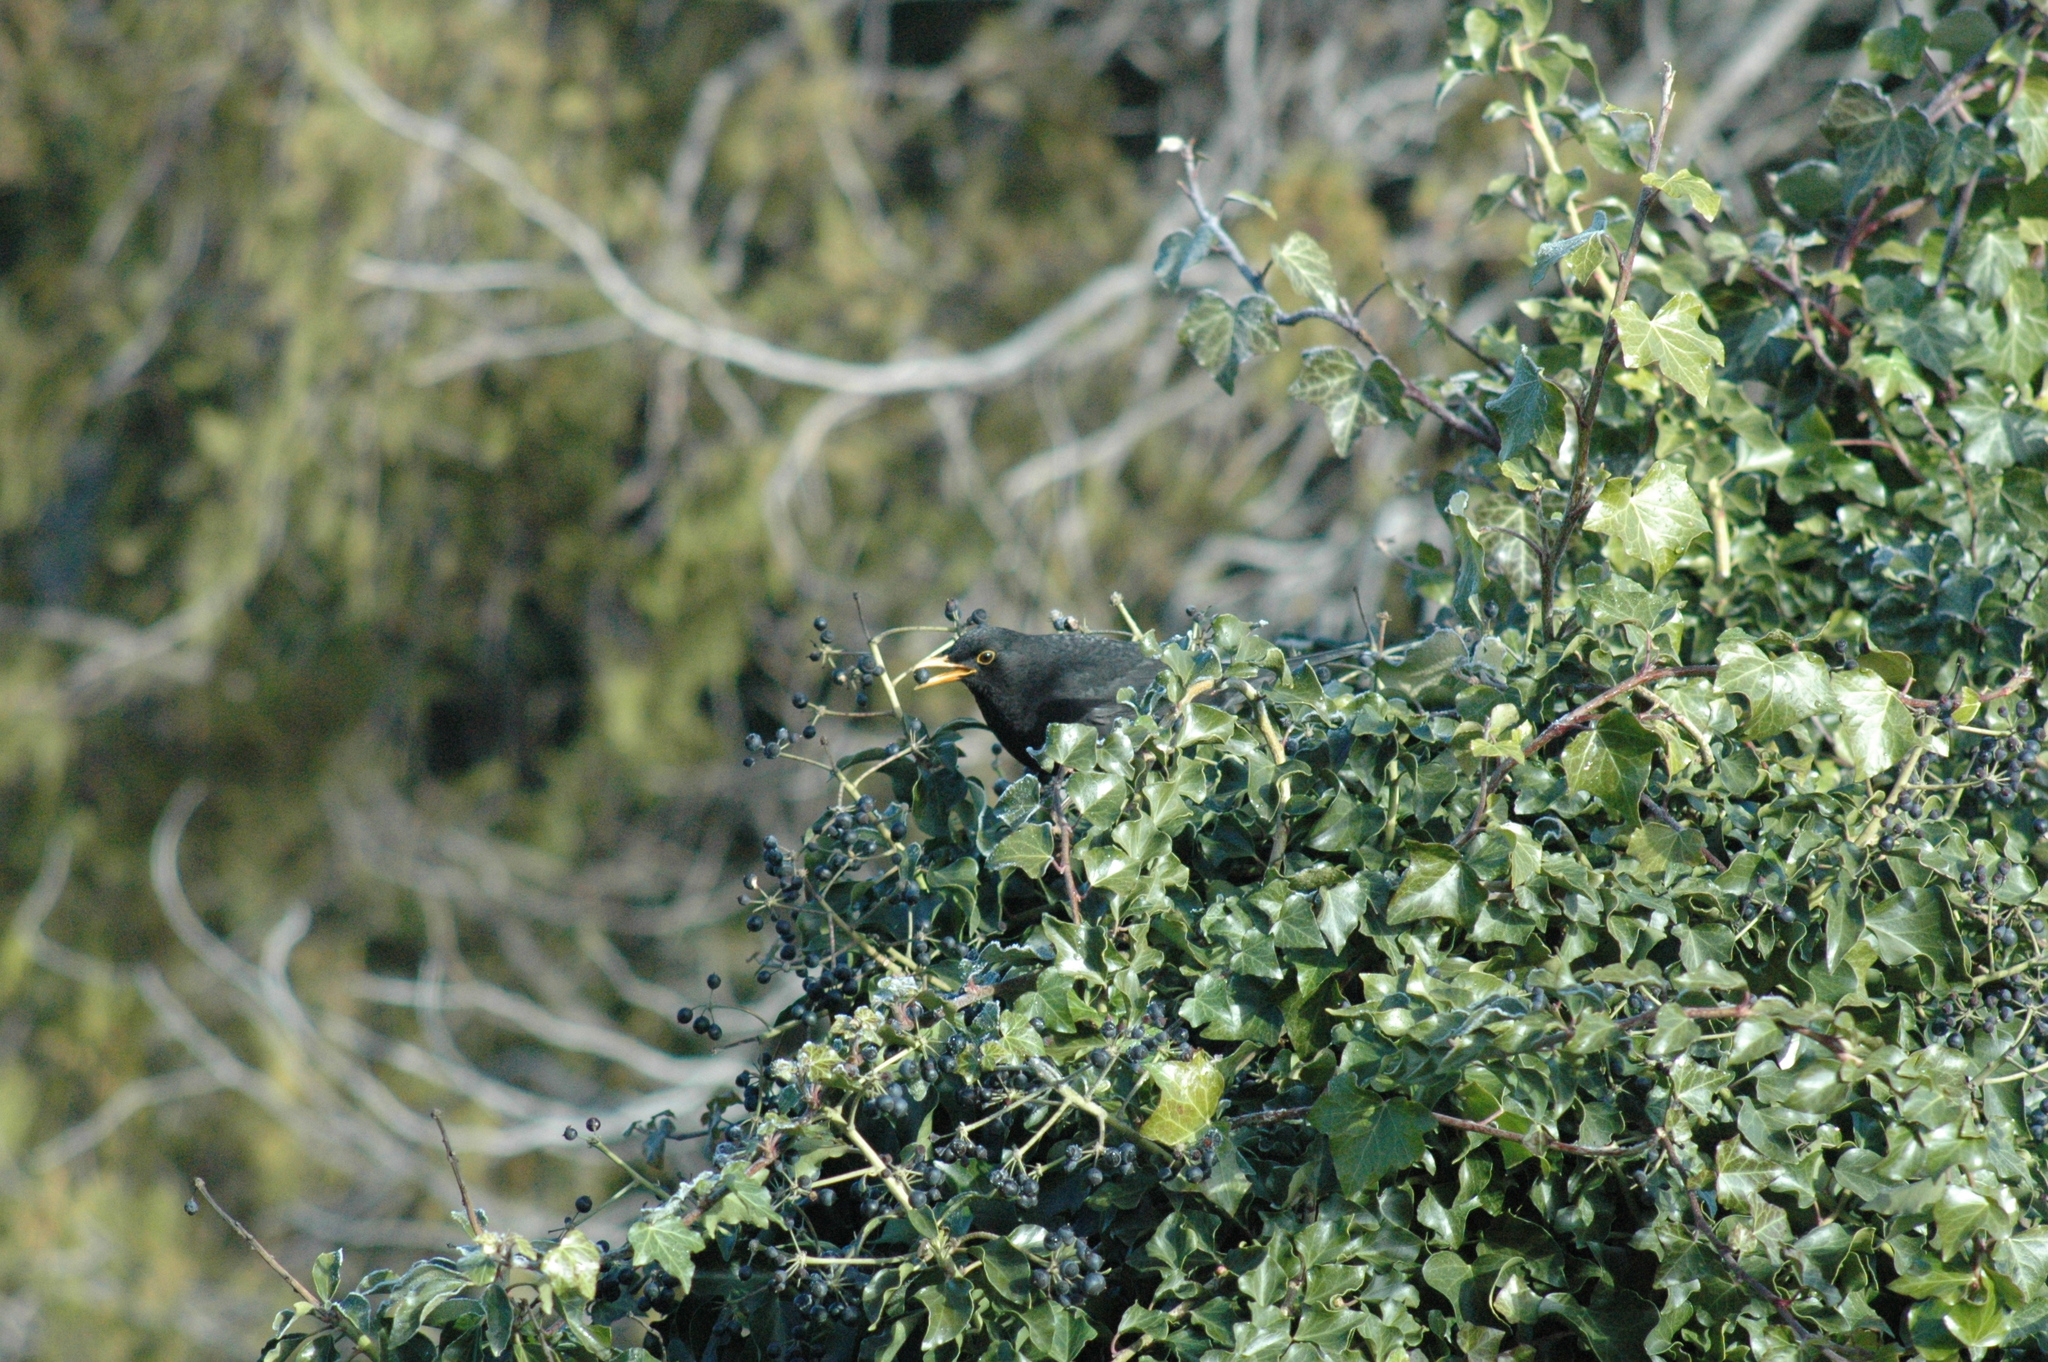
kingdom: Animalia
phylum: Chordata
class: Aves
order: Passeriformes
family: Turdidae
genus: Turdus
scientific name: Turdus merula
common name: Common blackbird
